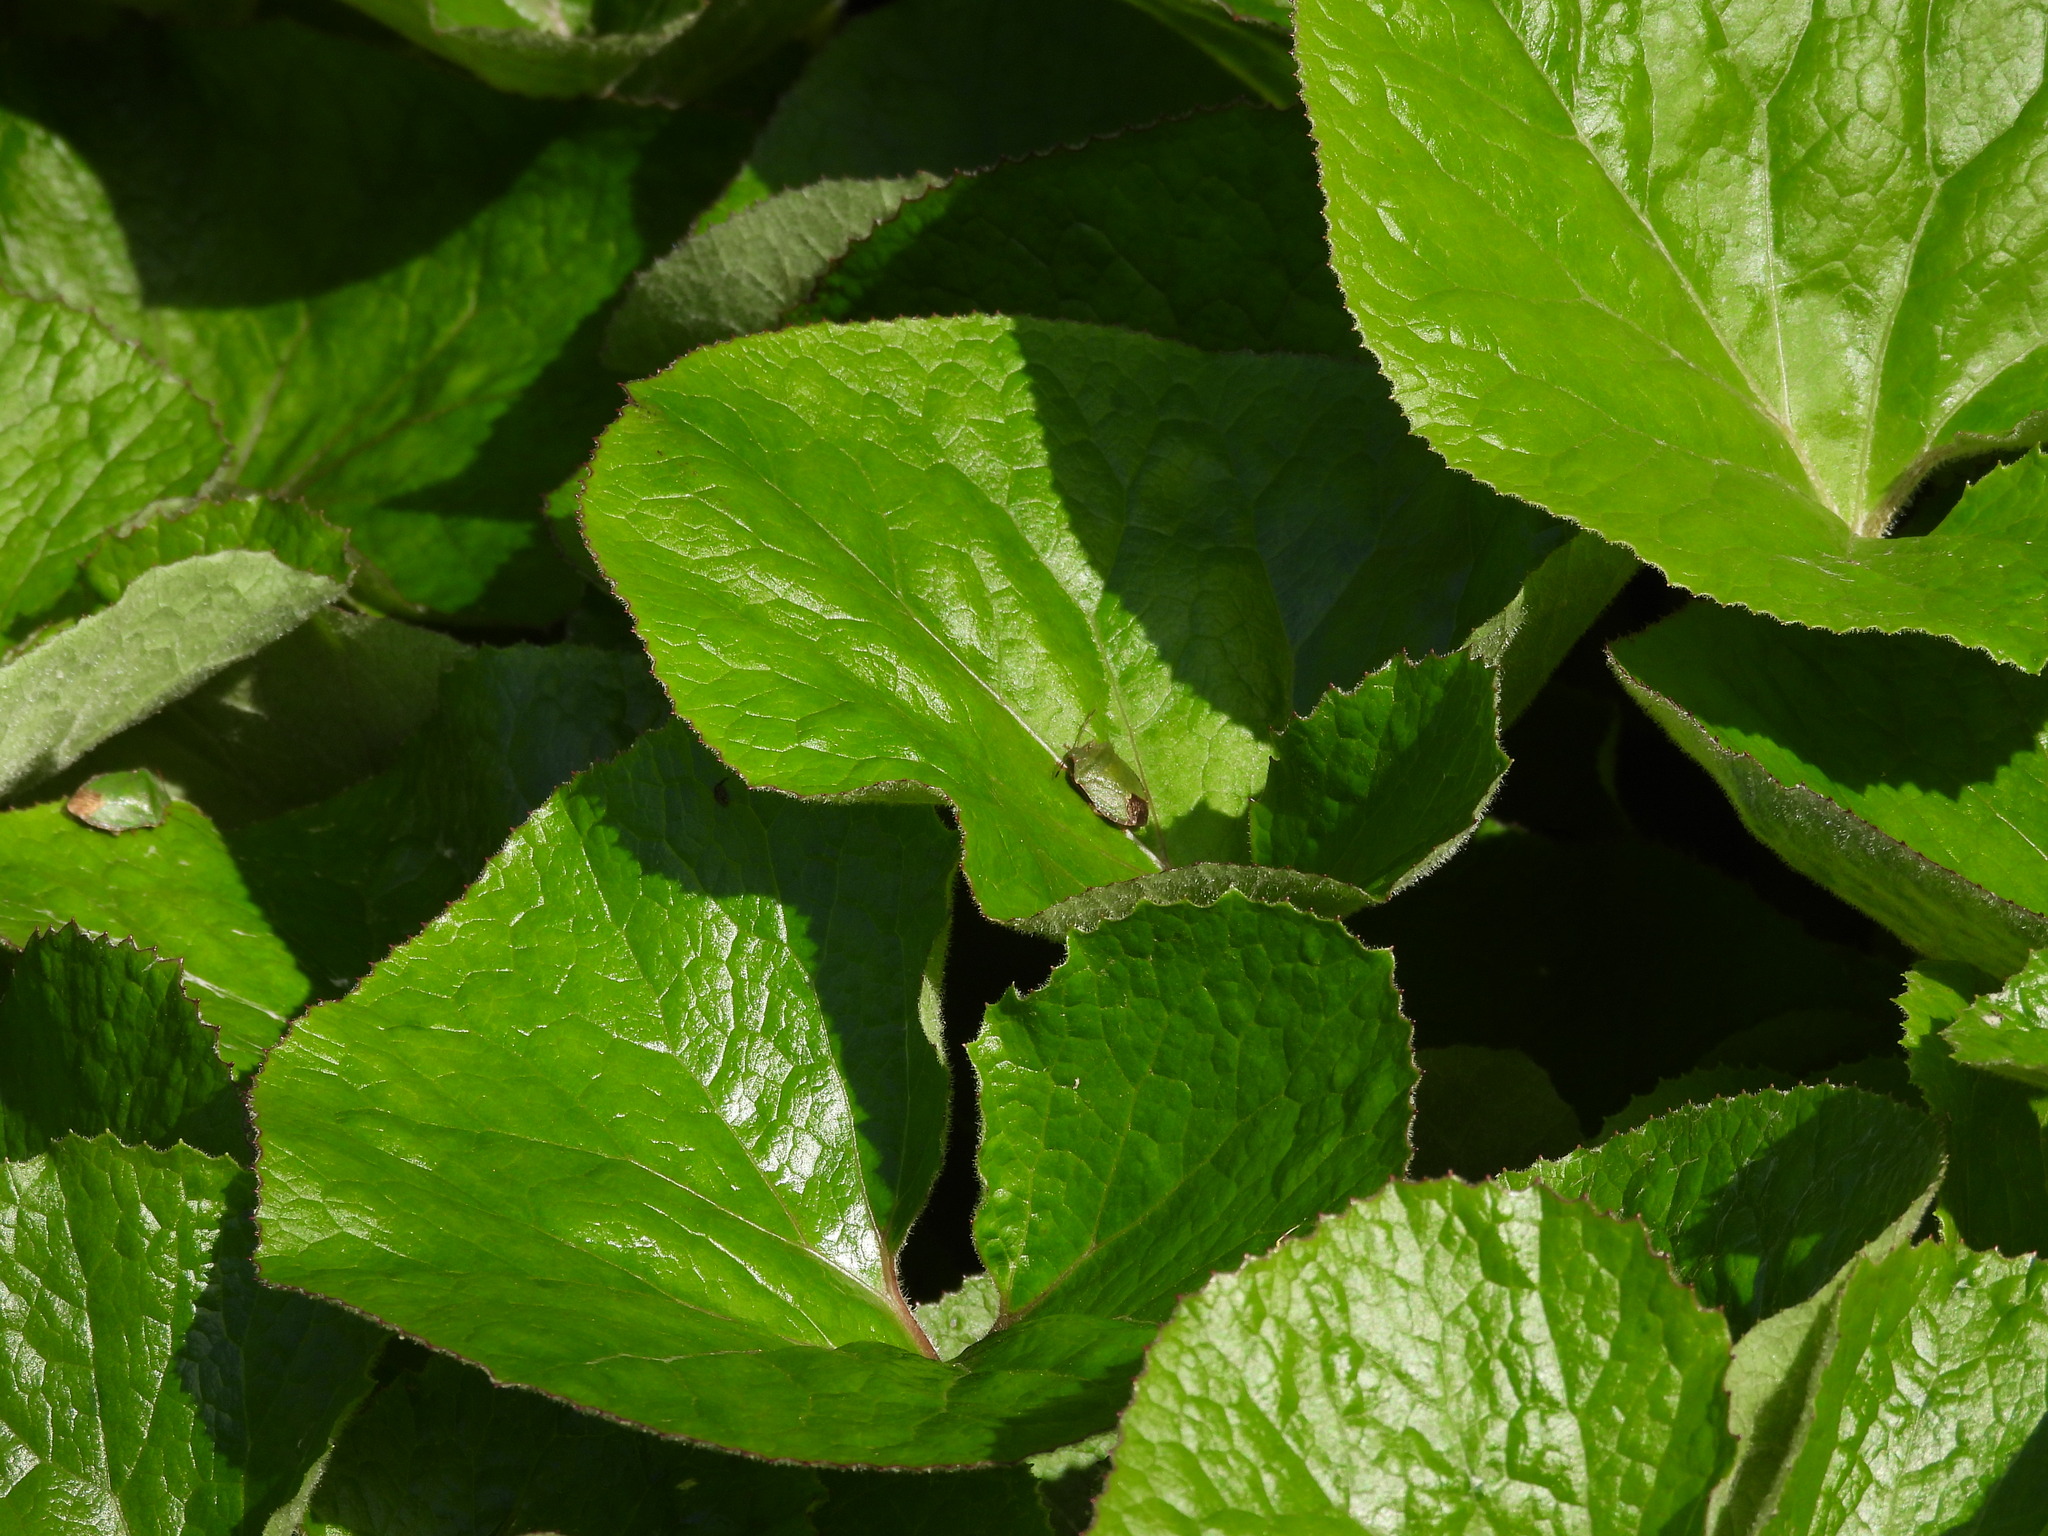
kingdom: Animalia
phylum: Arthropoda
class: Insecta
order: Hemiptera
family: Pentatomidae
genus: Palomena
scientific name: Palomena prasina
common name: Green shieldbug
